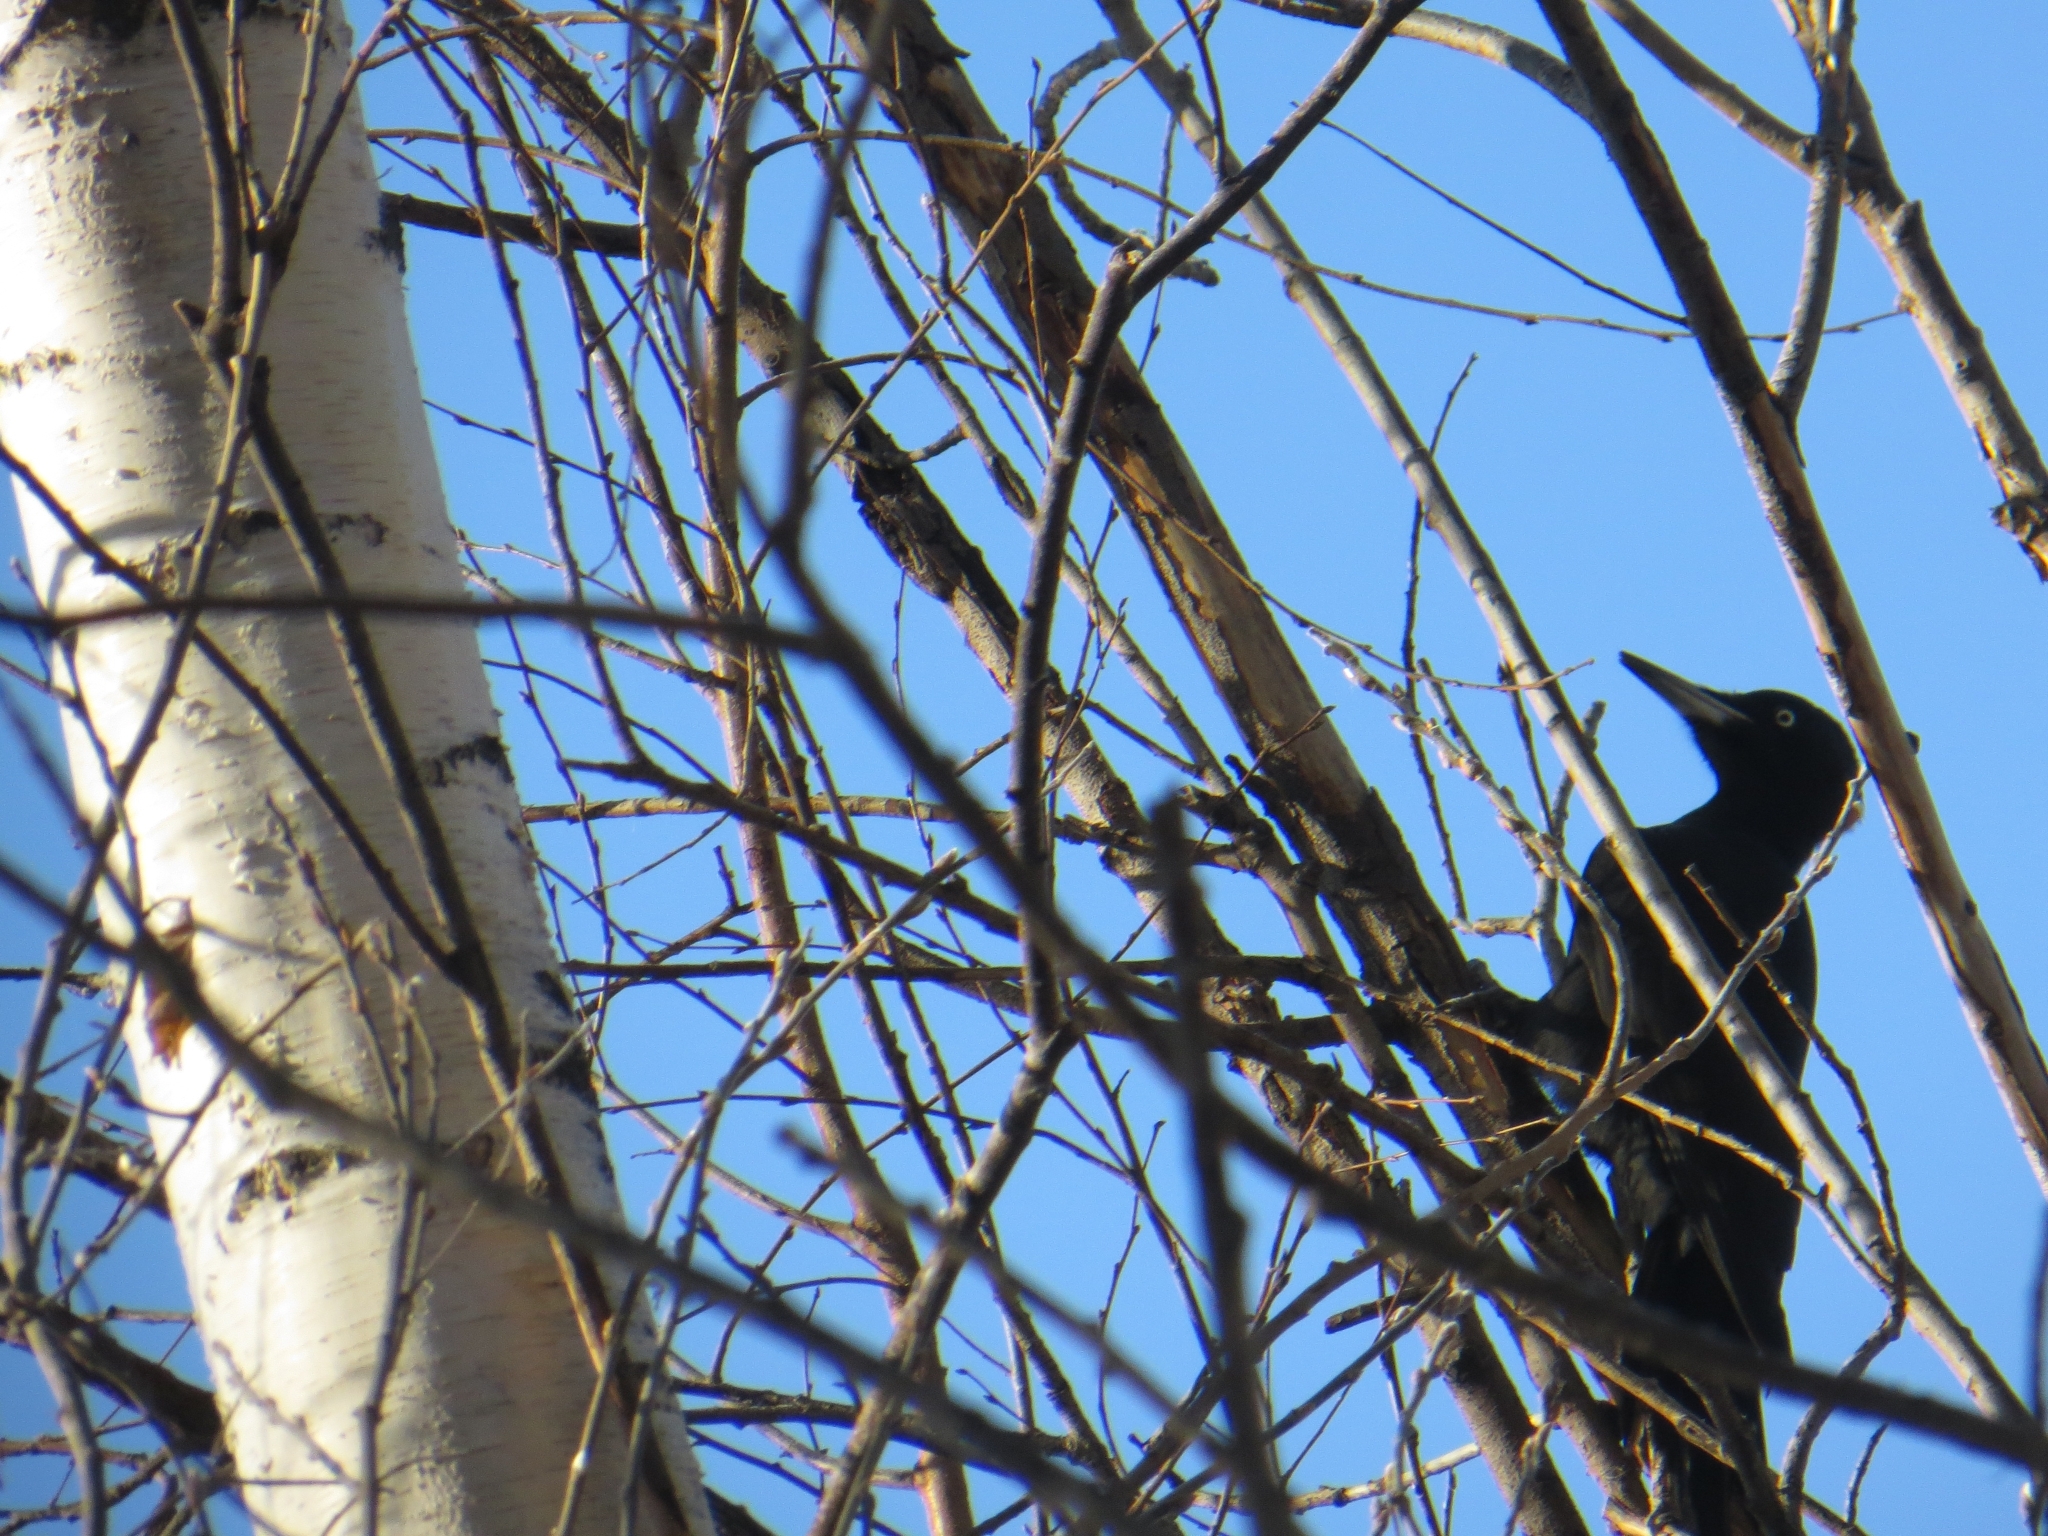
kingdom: Animalia
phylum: Chordata
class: Aves
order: Piciformes
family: Picidae
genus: Dryocopus
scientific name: Dryocopus martius
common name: Black woodpecker
